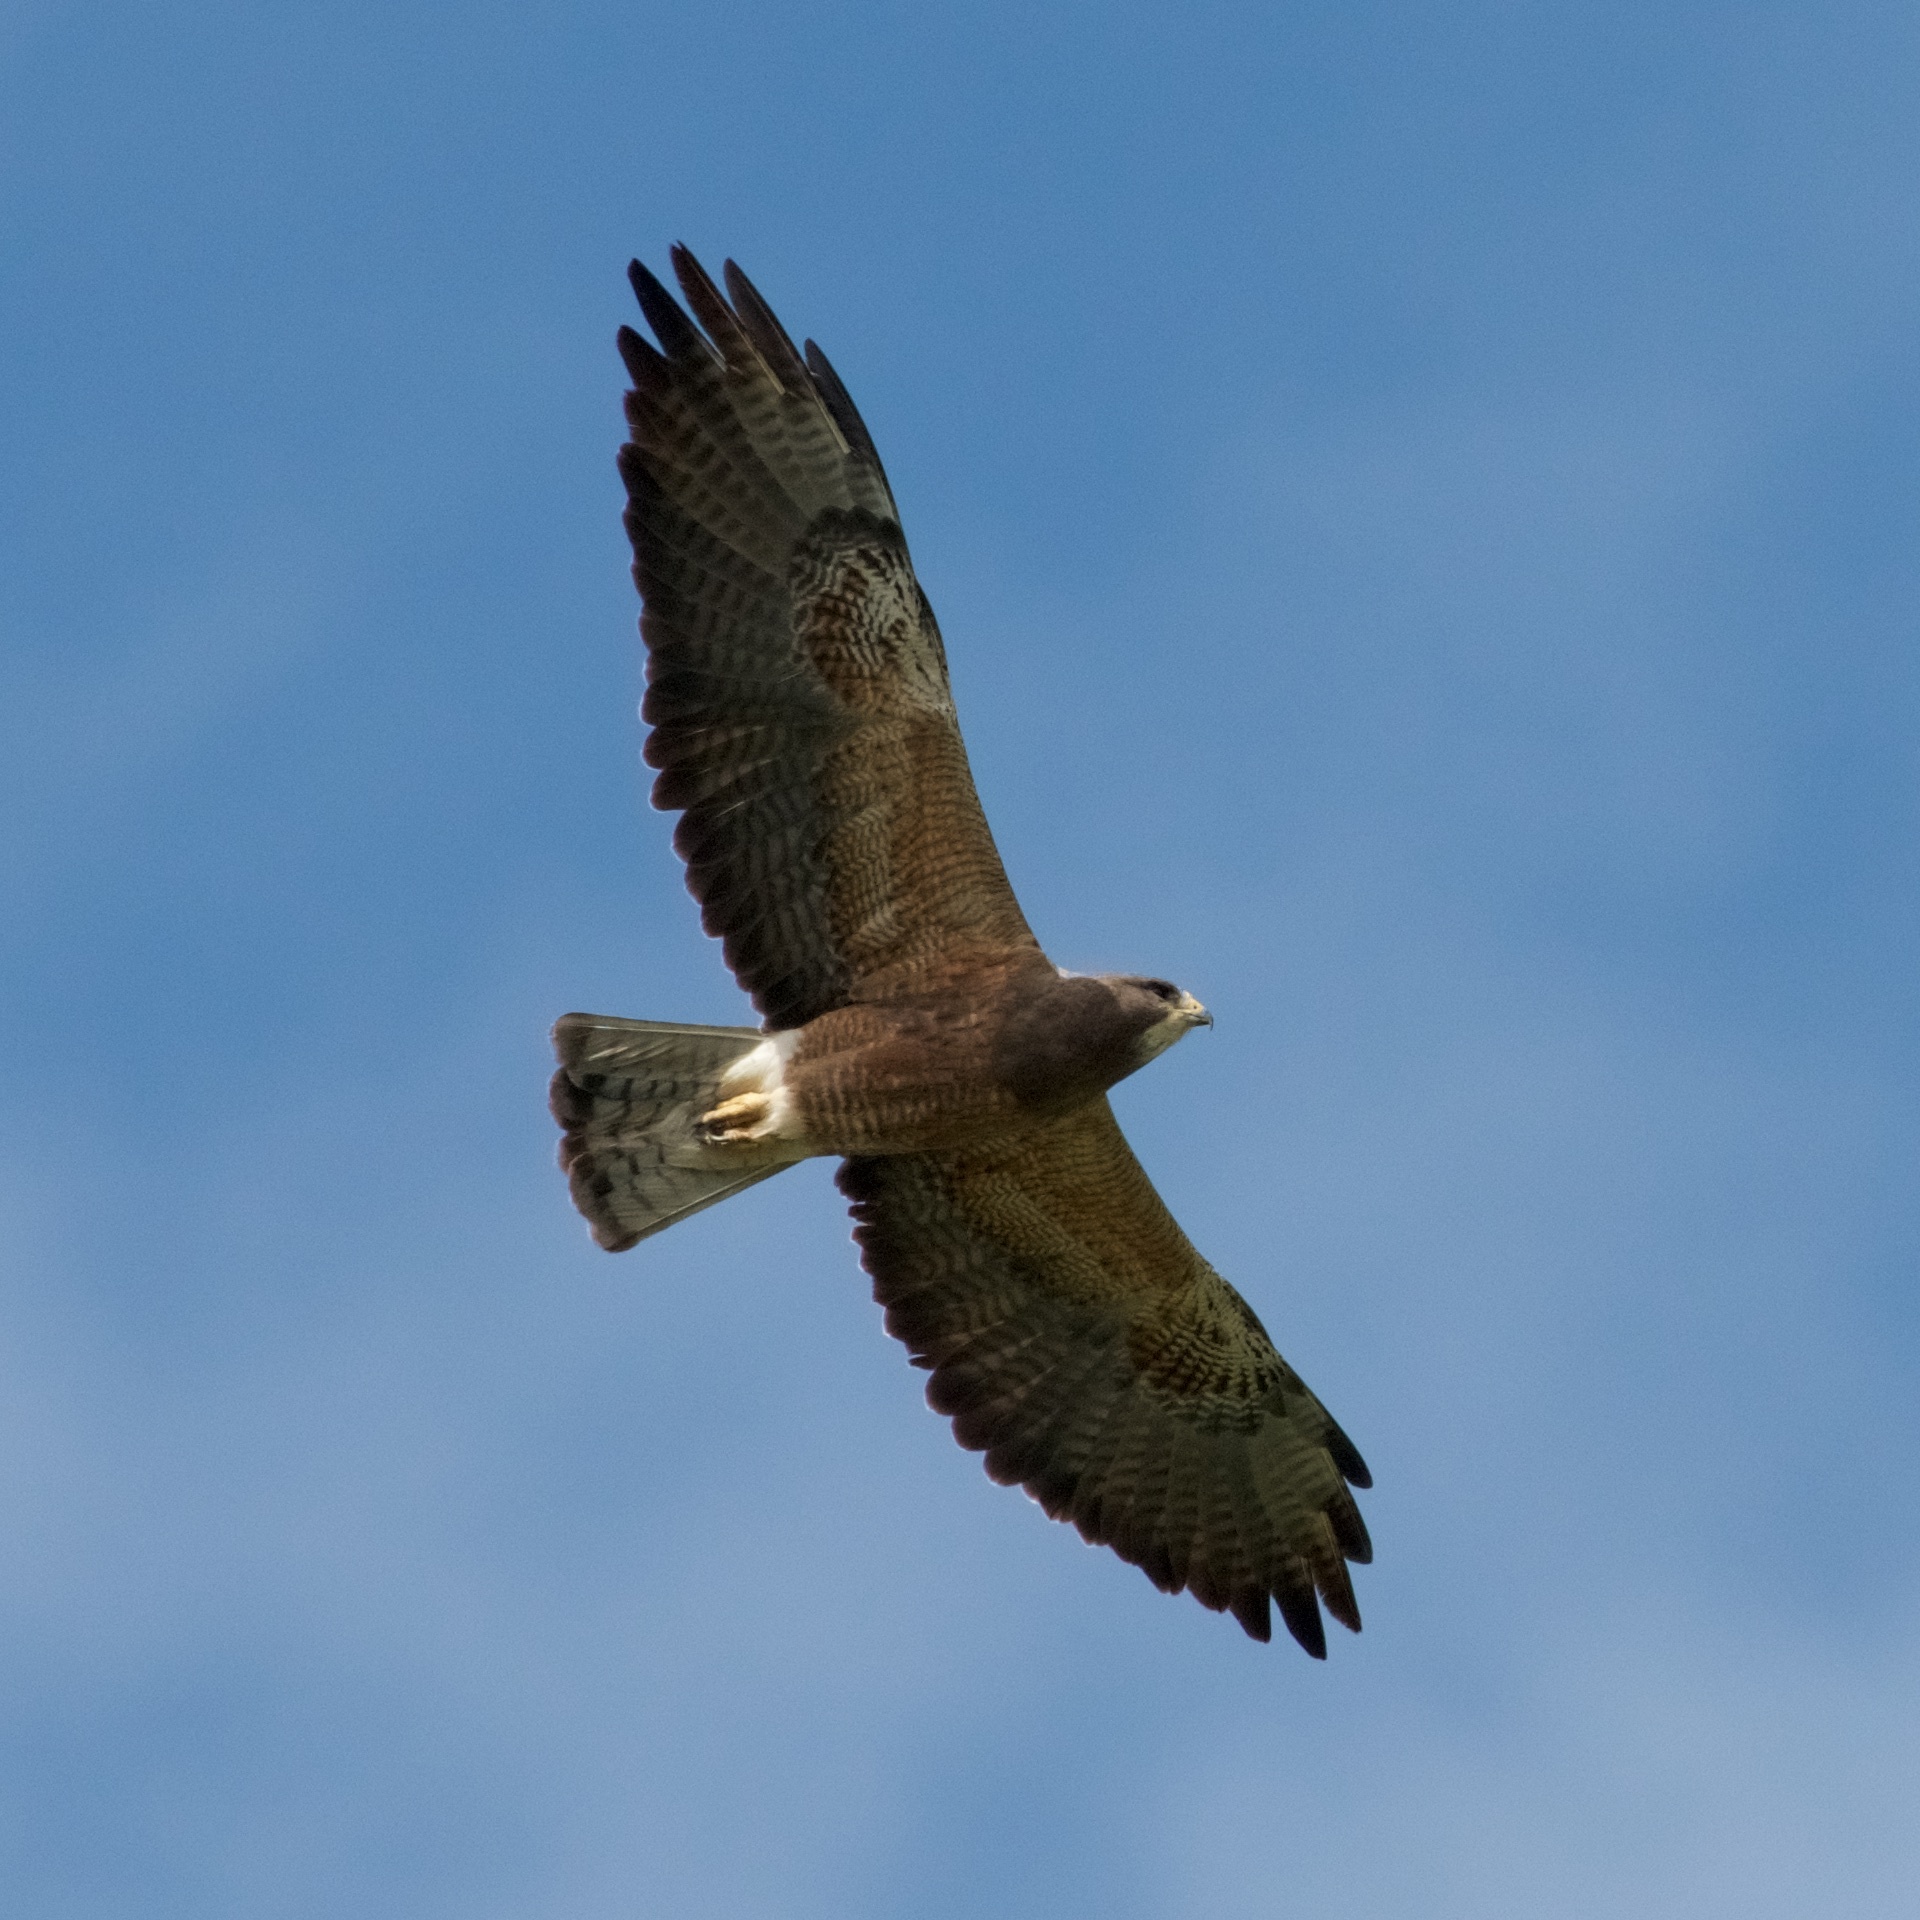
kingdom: Animalia
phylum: Chordata
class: Aves
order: Accipitriformes
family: Accipitridae
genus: Buteo
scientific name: Buteo swainsoni
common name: Swainson's hawk
